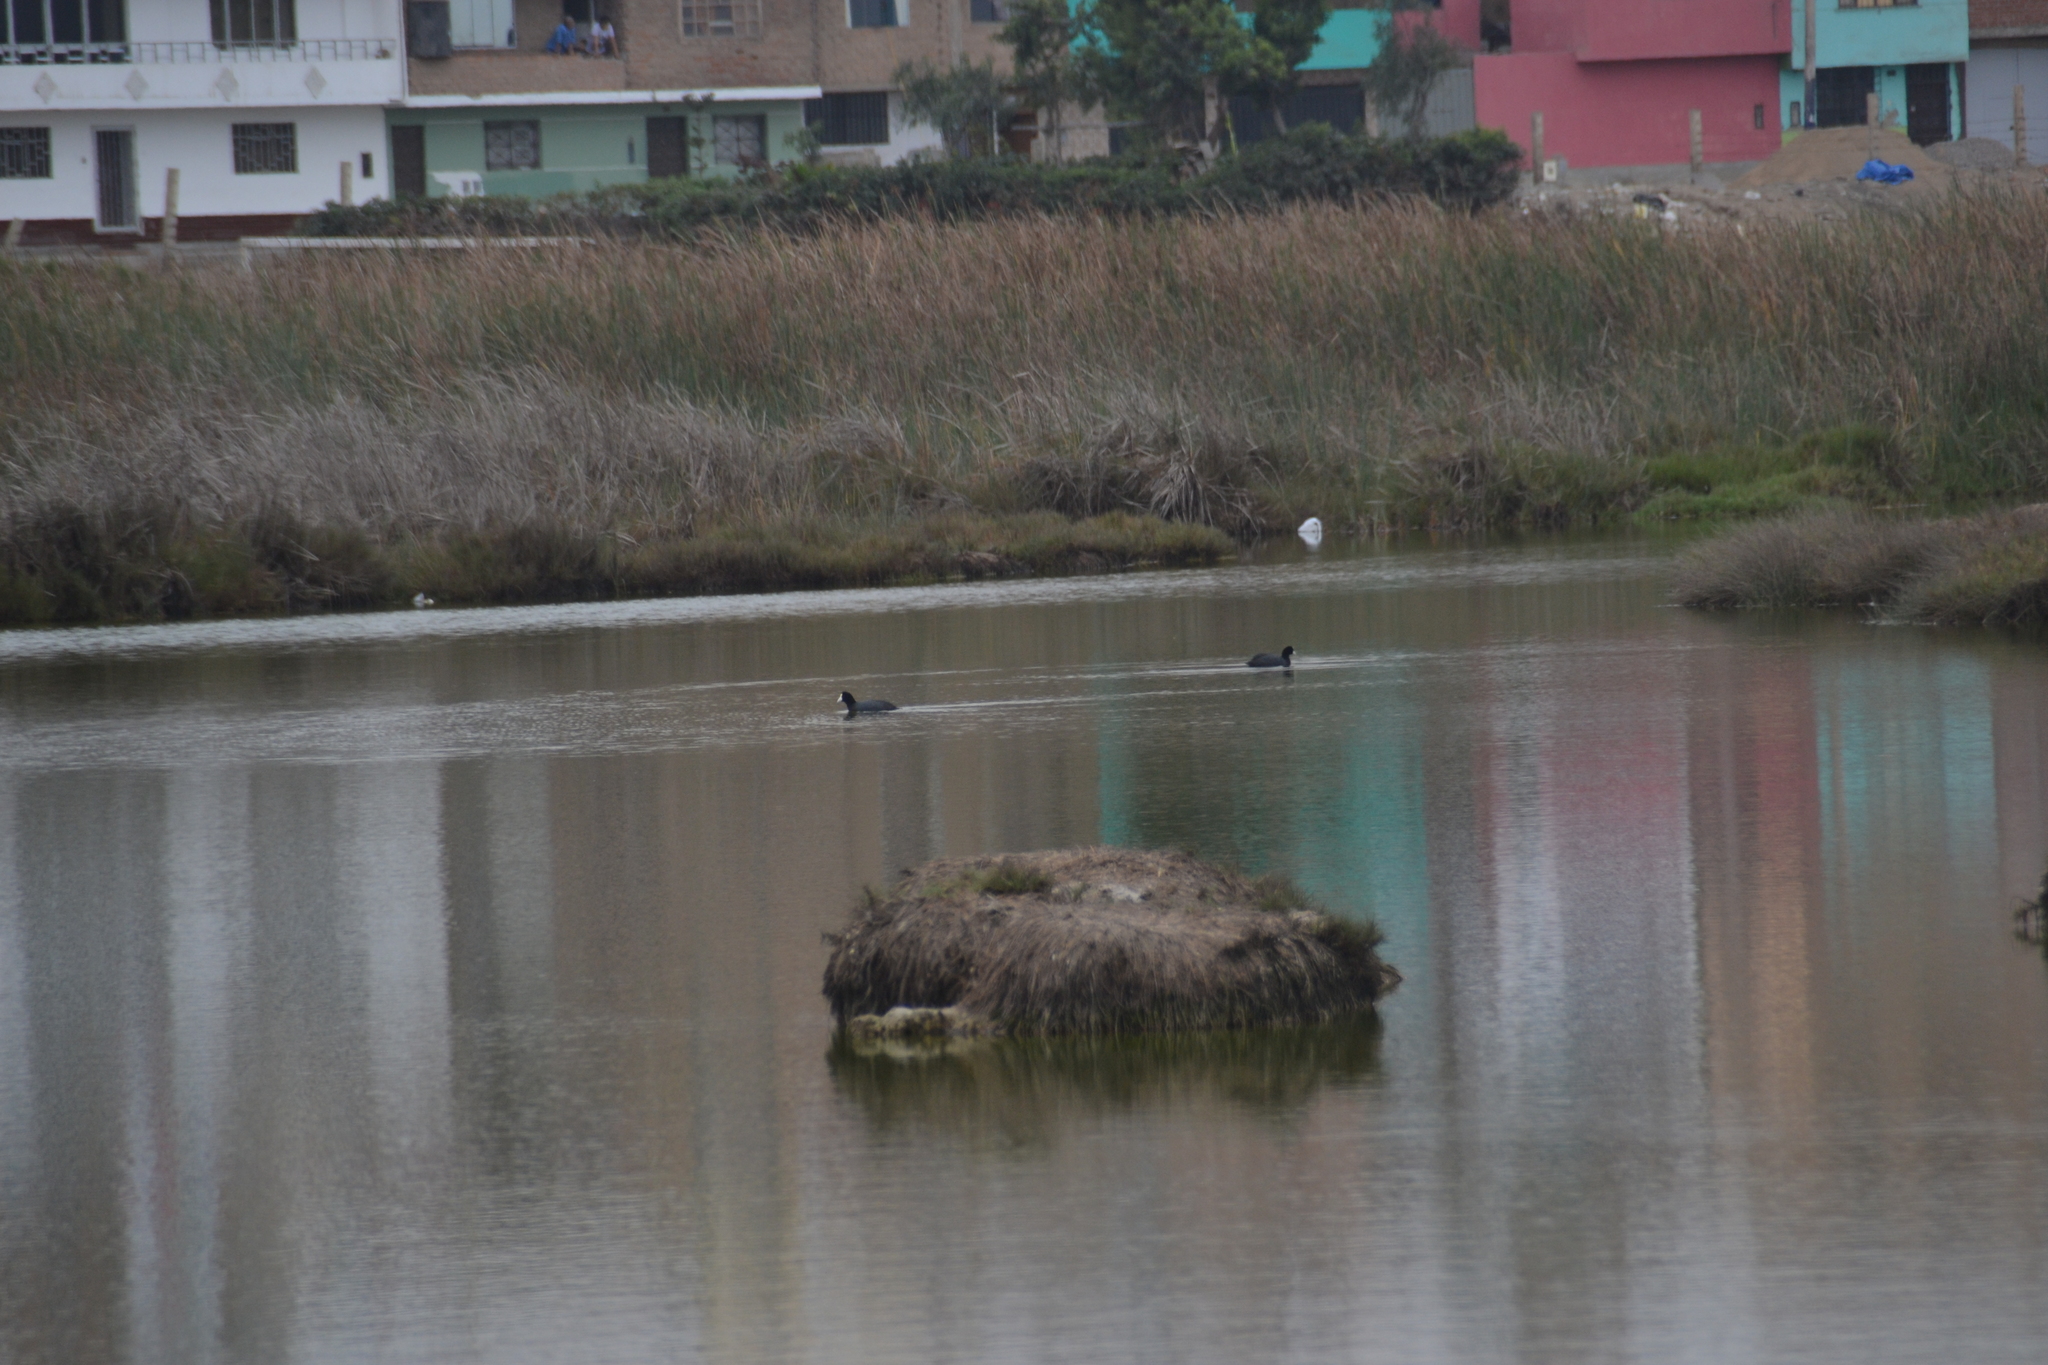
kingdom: Animalia
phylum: Chordata
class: Aves
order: Gruiformes
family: Rallidae
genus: Fulica
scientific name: Fulica ardesiaca
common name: Andean coot
